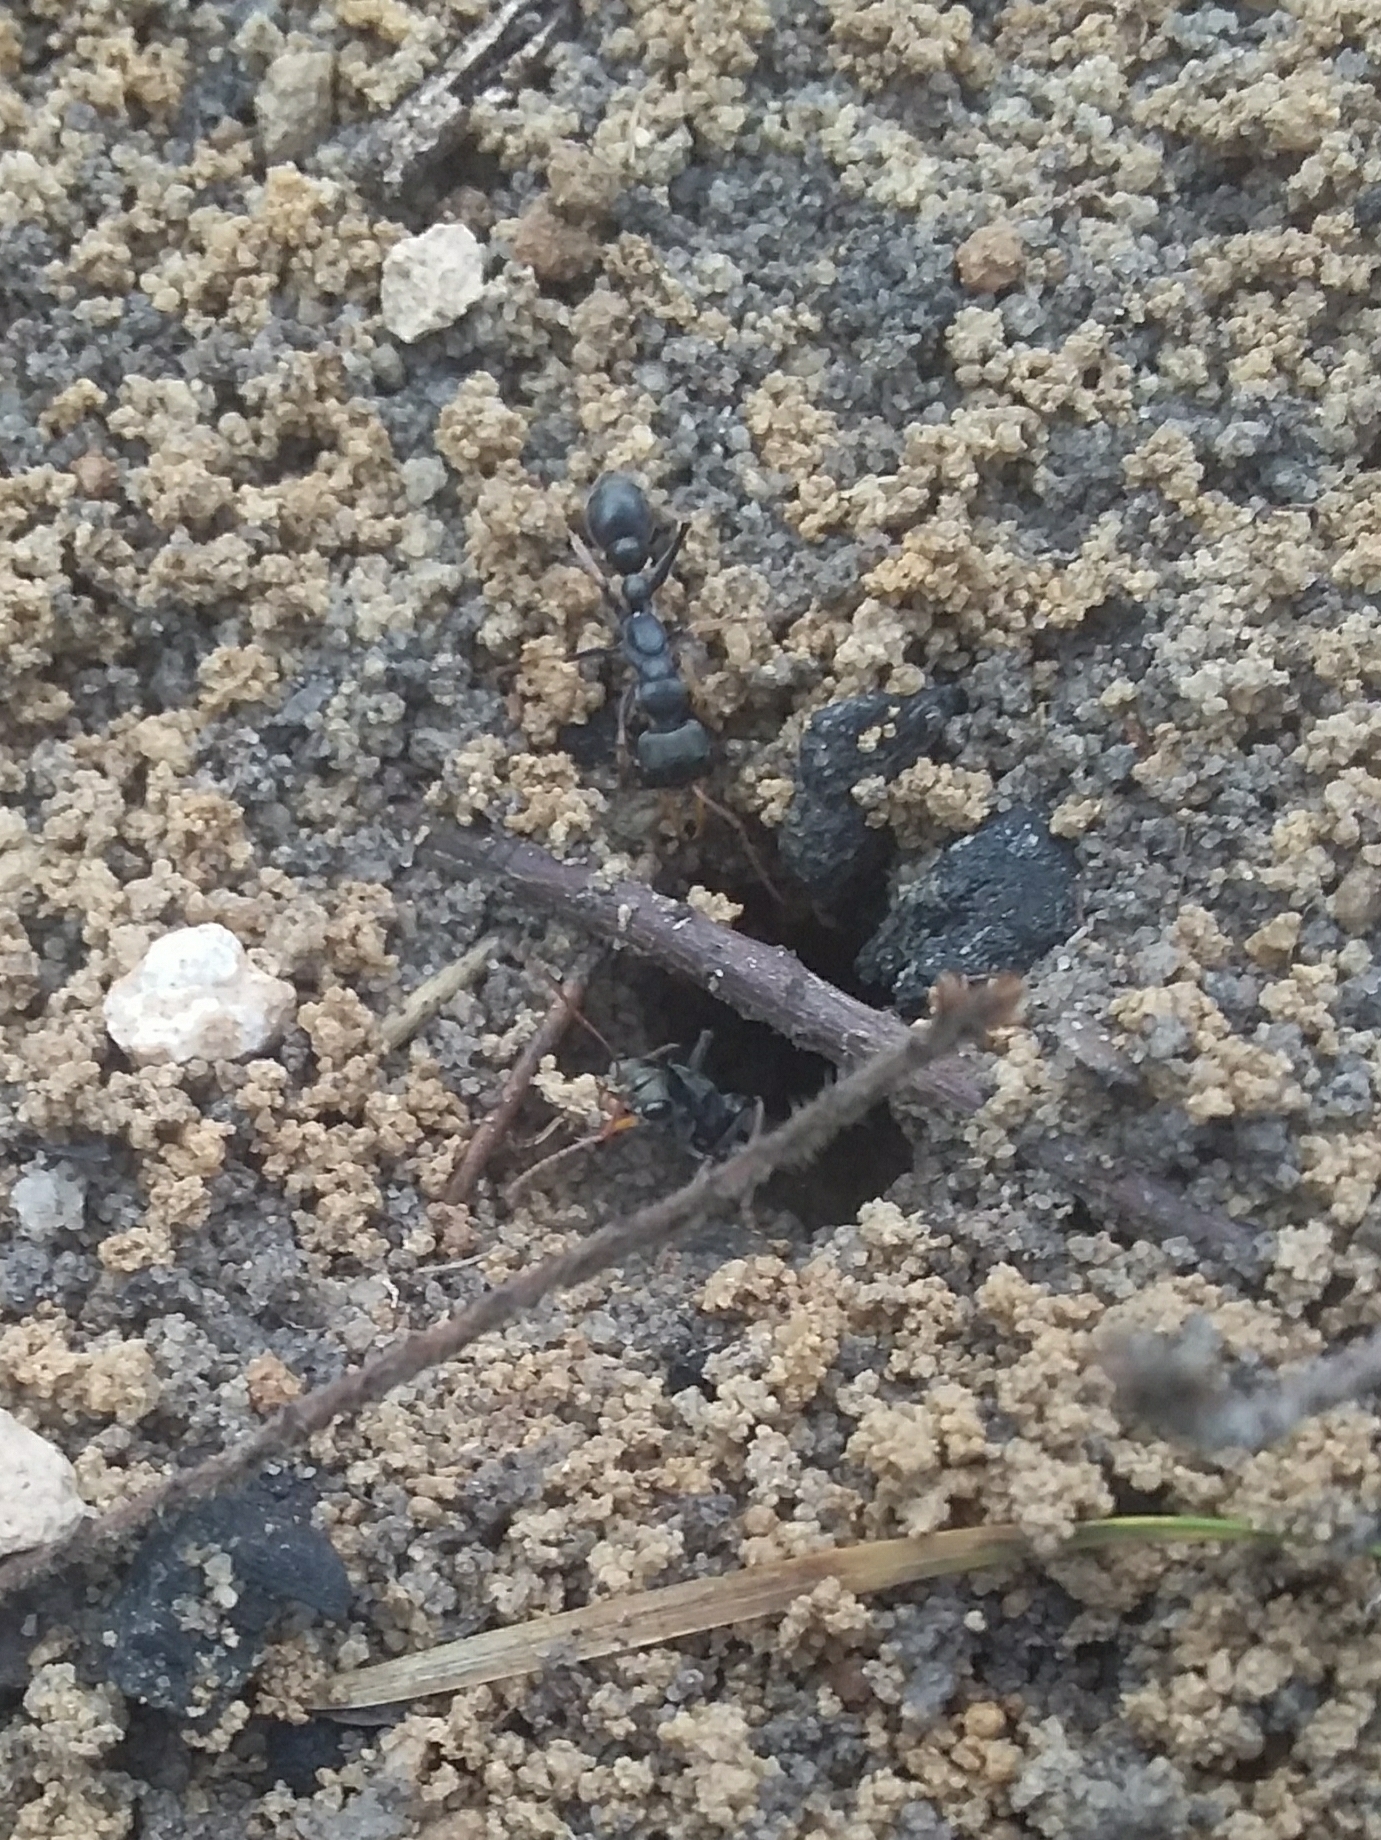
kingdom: Animalia
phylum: Arthropoda
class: Insecta
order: Hymenoptera
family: Formicidae
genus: Myrmecia
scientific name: Myrmecia pilosula
